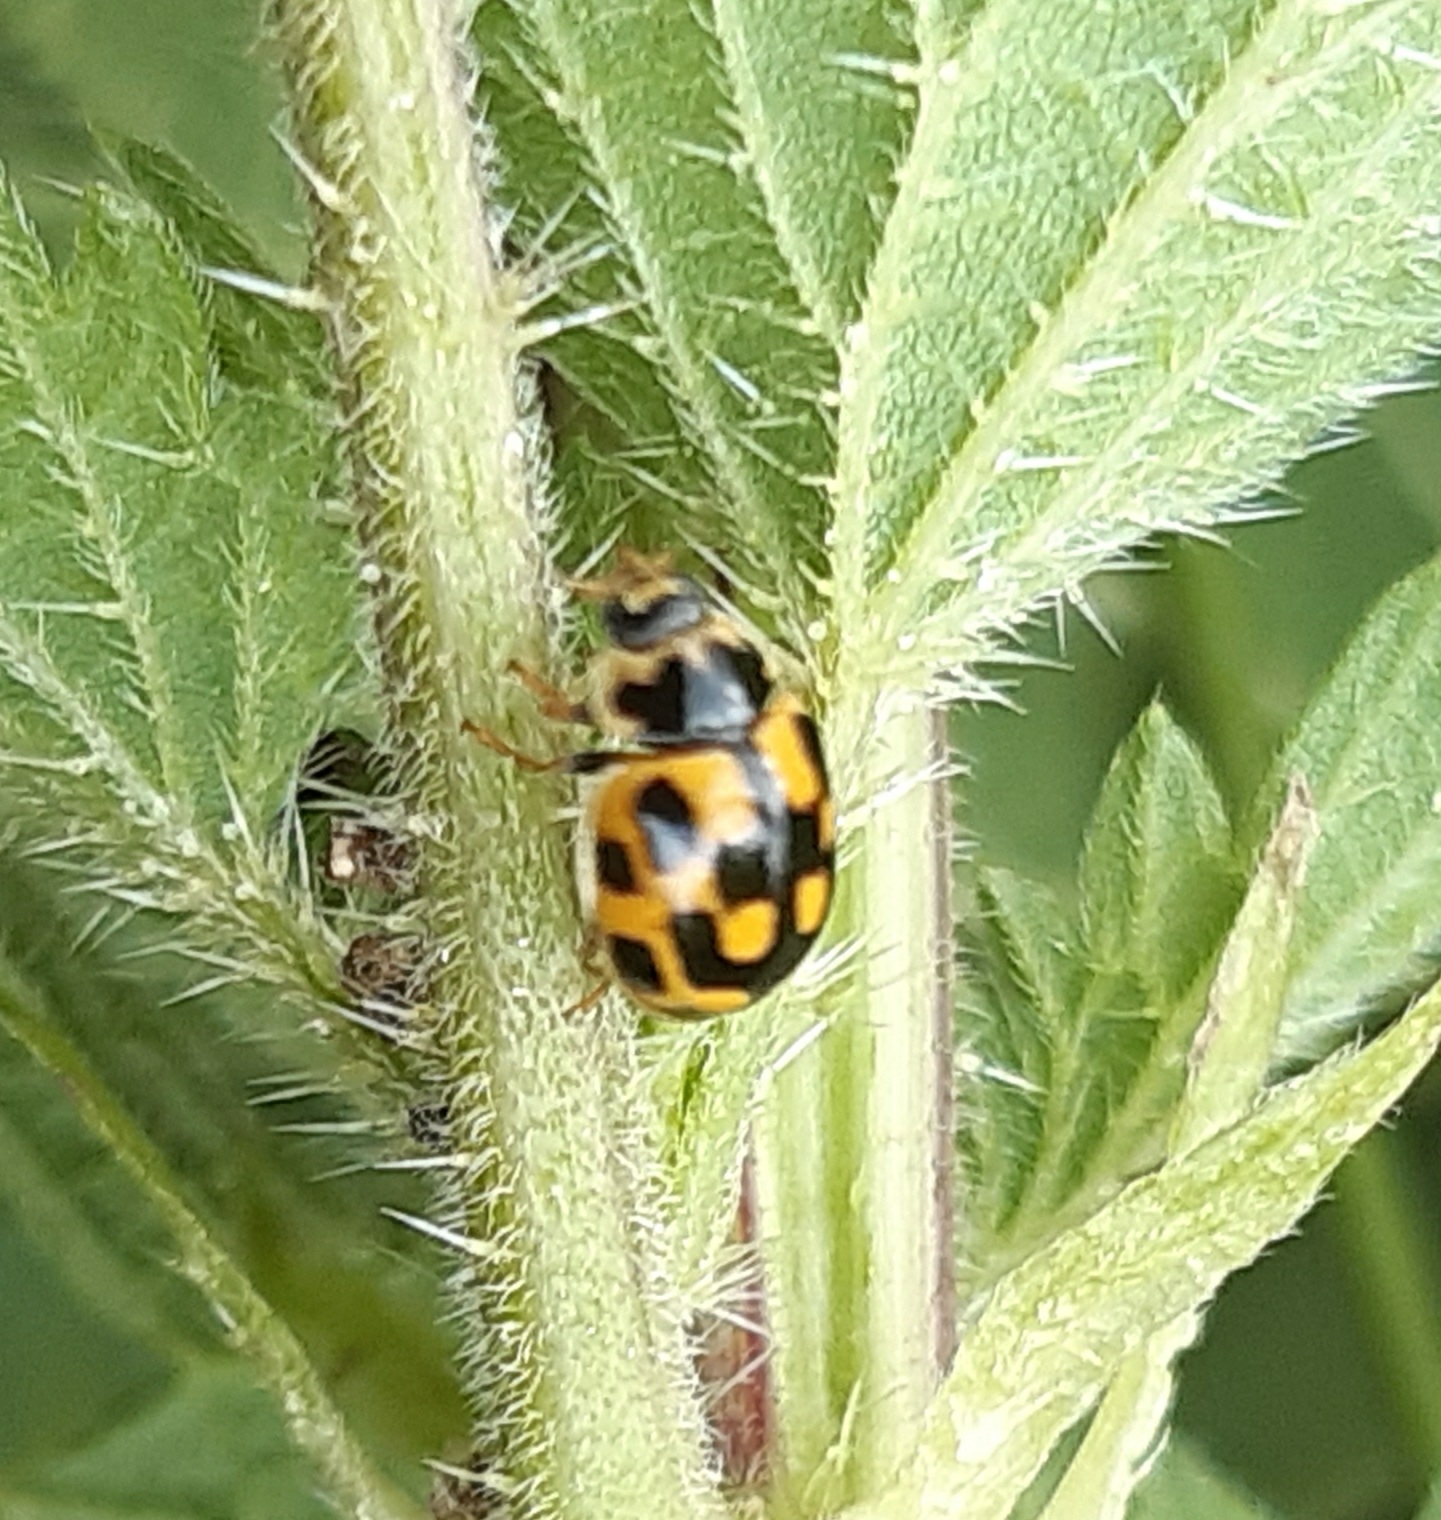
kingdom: Animalia
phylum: Arthropoda
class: Insecta
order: Coleoptera
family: Coccinellidae
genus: Propylaea
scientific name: Propylaea quatuordecimpunctata
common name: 14-spotted ladybird beetle
